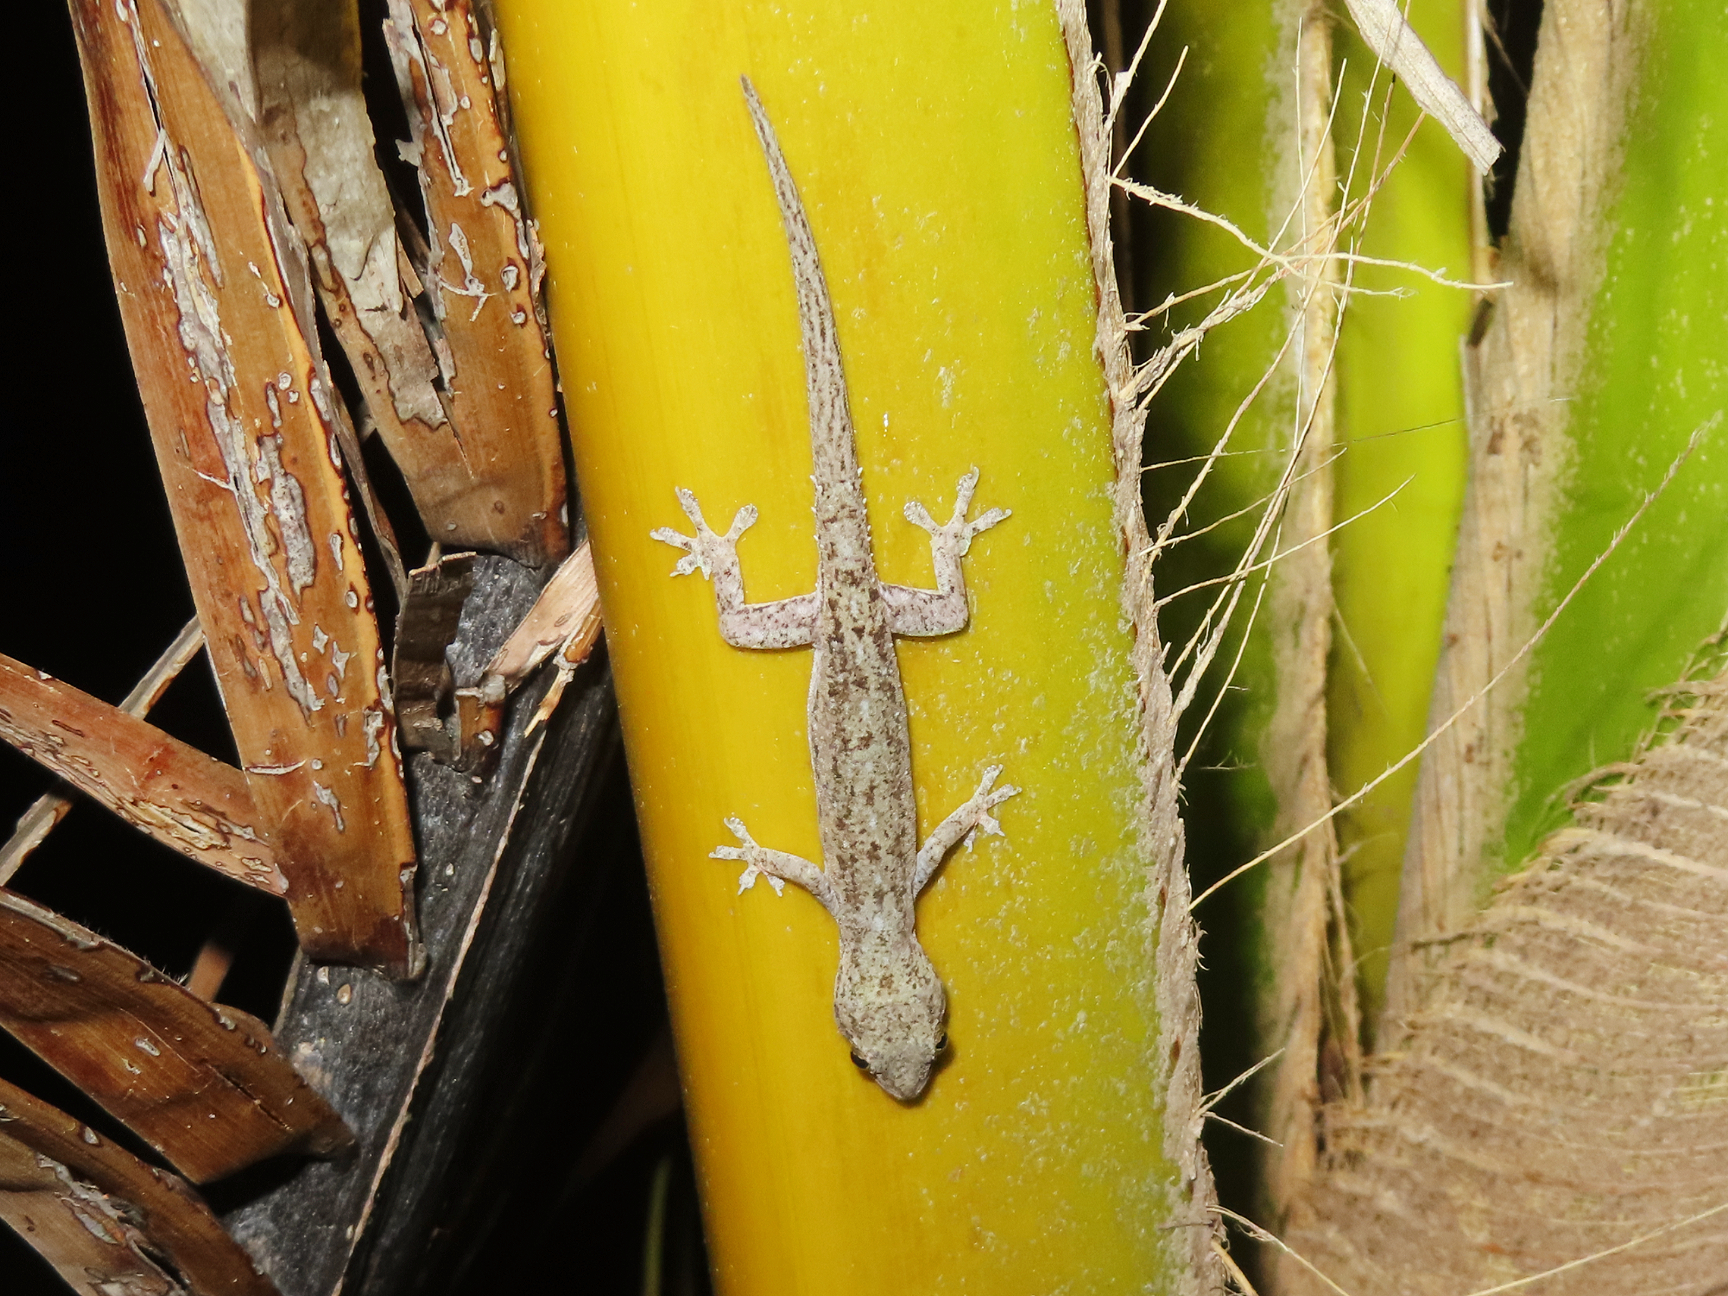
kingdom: Animalia
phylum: Chordata
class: Squamata
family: Gekkonidae
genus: Hemidactylus
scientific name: Hemidactylus frenatus
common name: Common house gecko
